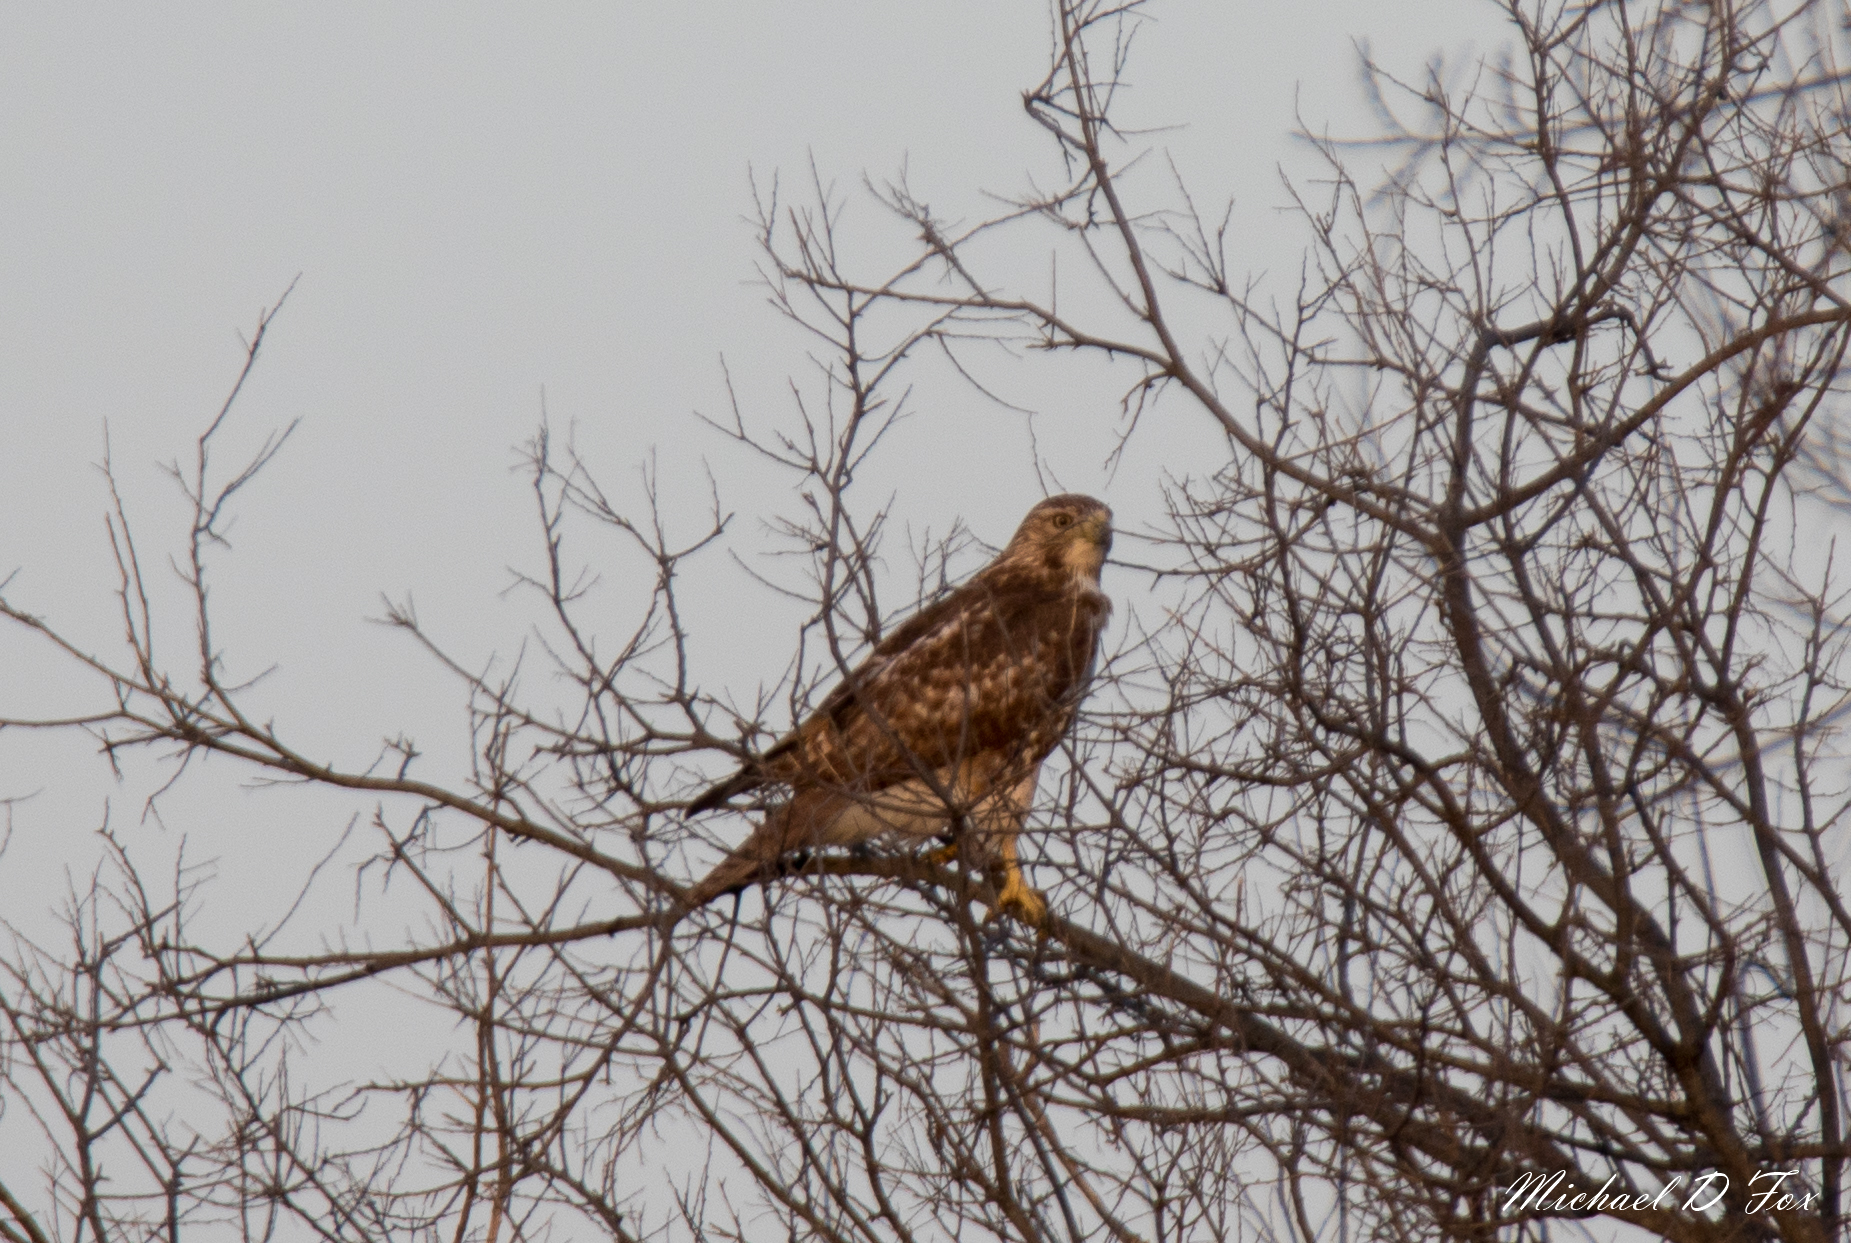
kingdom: Animalia
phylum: Chordata
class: Aves
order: Accipitriformes
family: Accipitridae
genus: Buteo
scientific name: Buteo jamaicensis
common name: Red-tailed hawk
